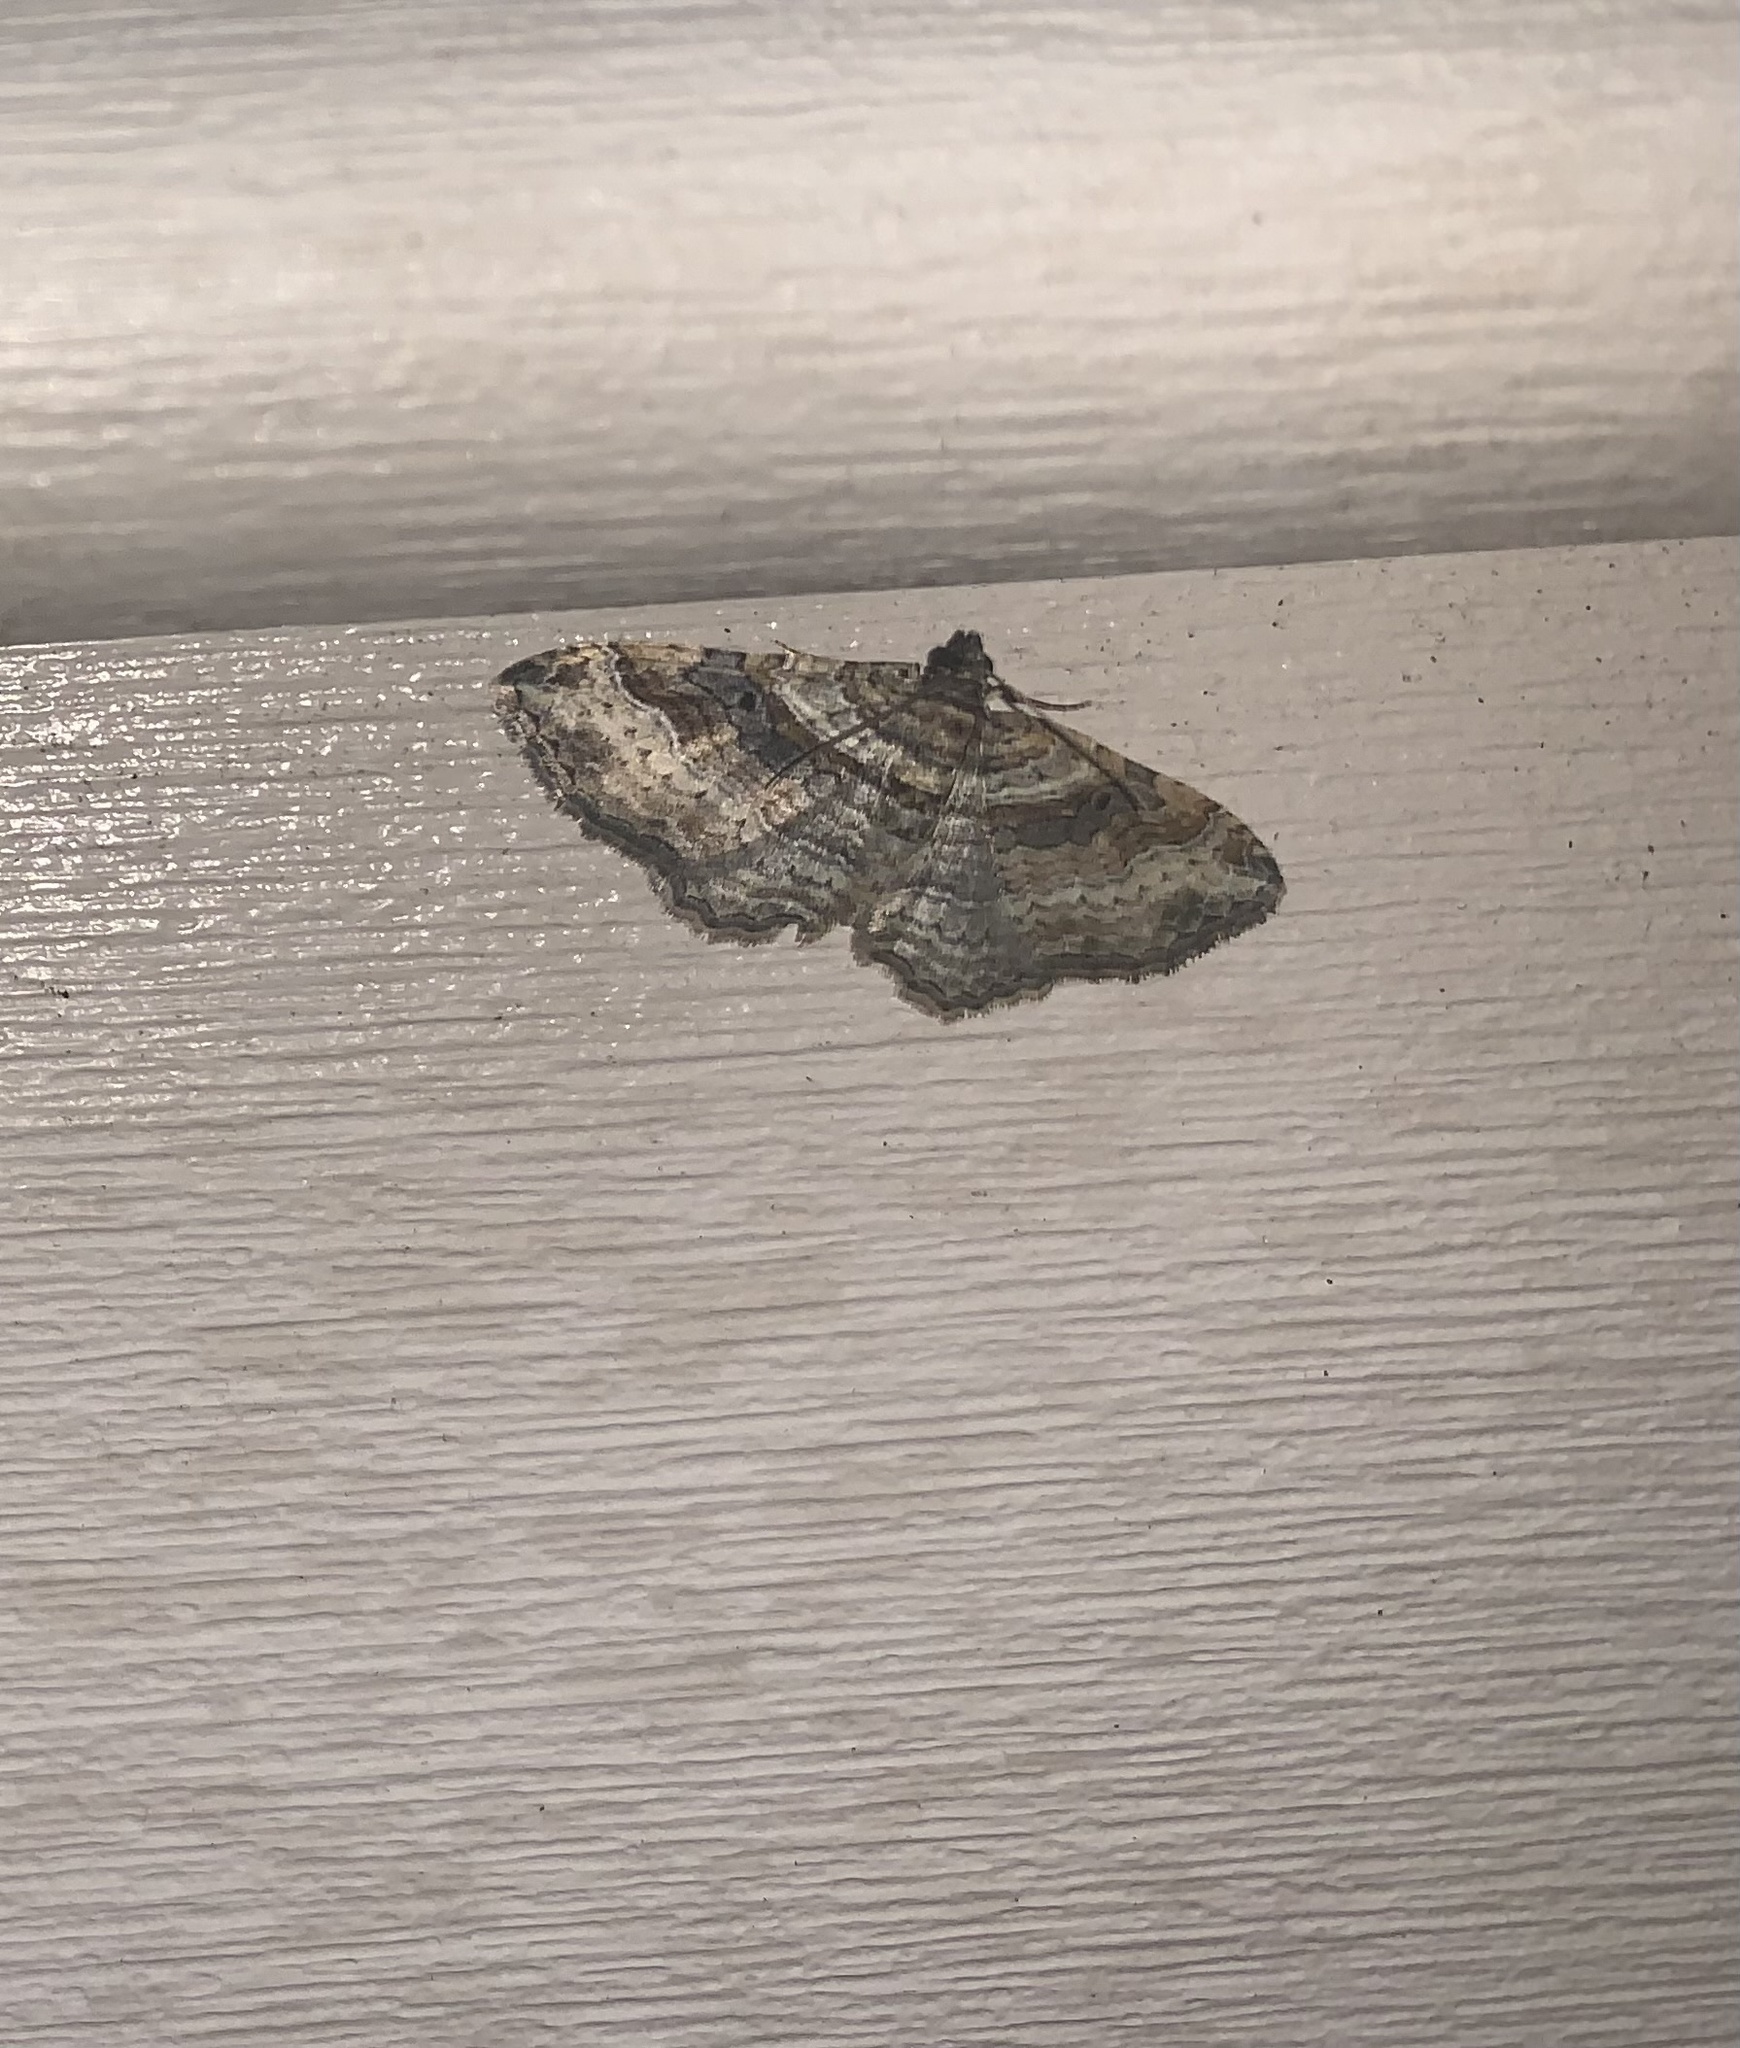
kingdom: Animalia
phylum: Arthropoda
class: Insecta
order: Lepidoptera
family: Geometridae
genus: Costaconvexa
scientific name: Costaconvexa centrostrigaria
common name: Bent-line carpet
